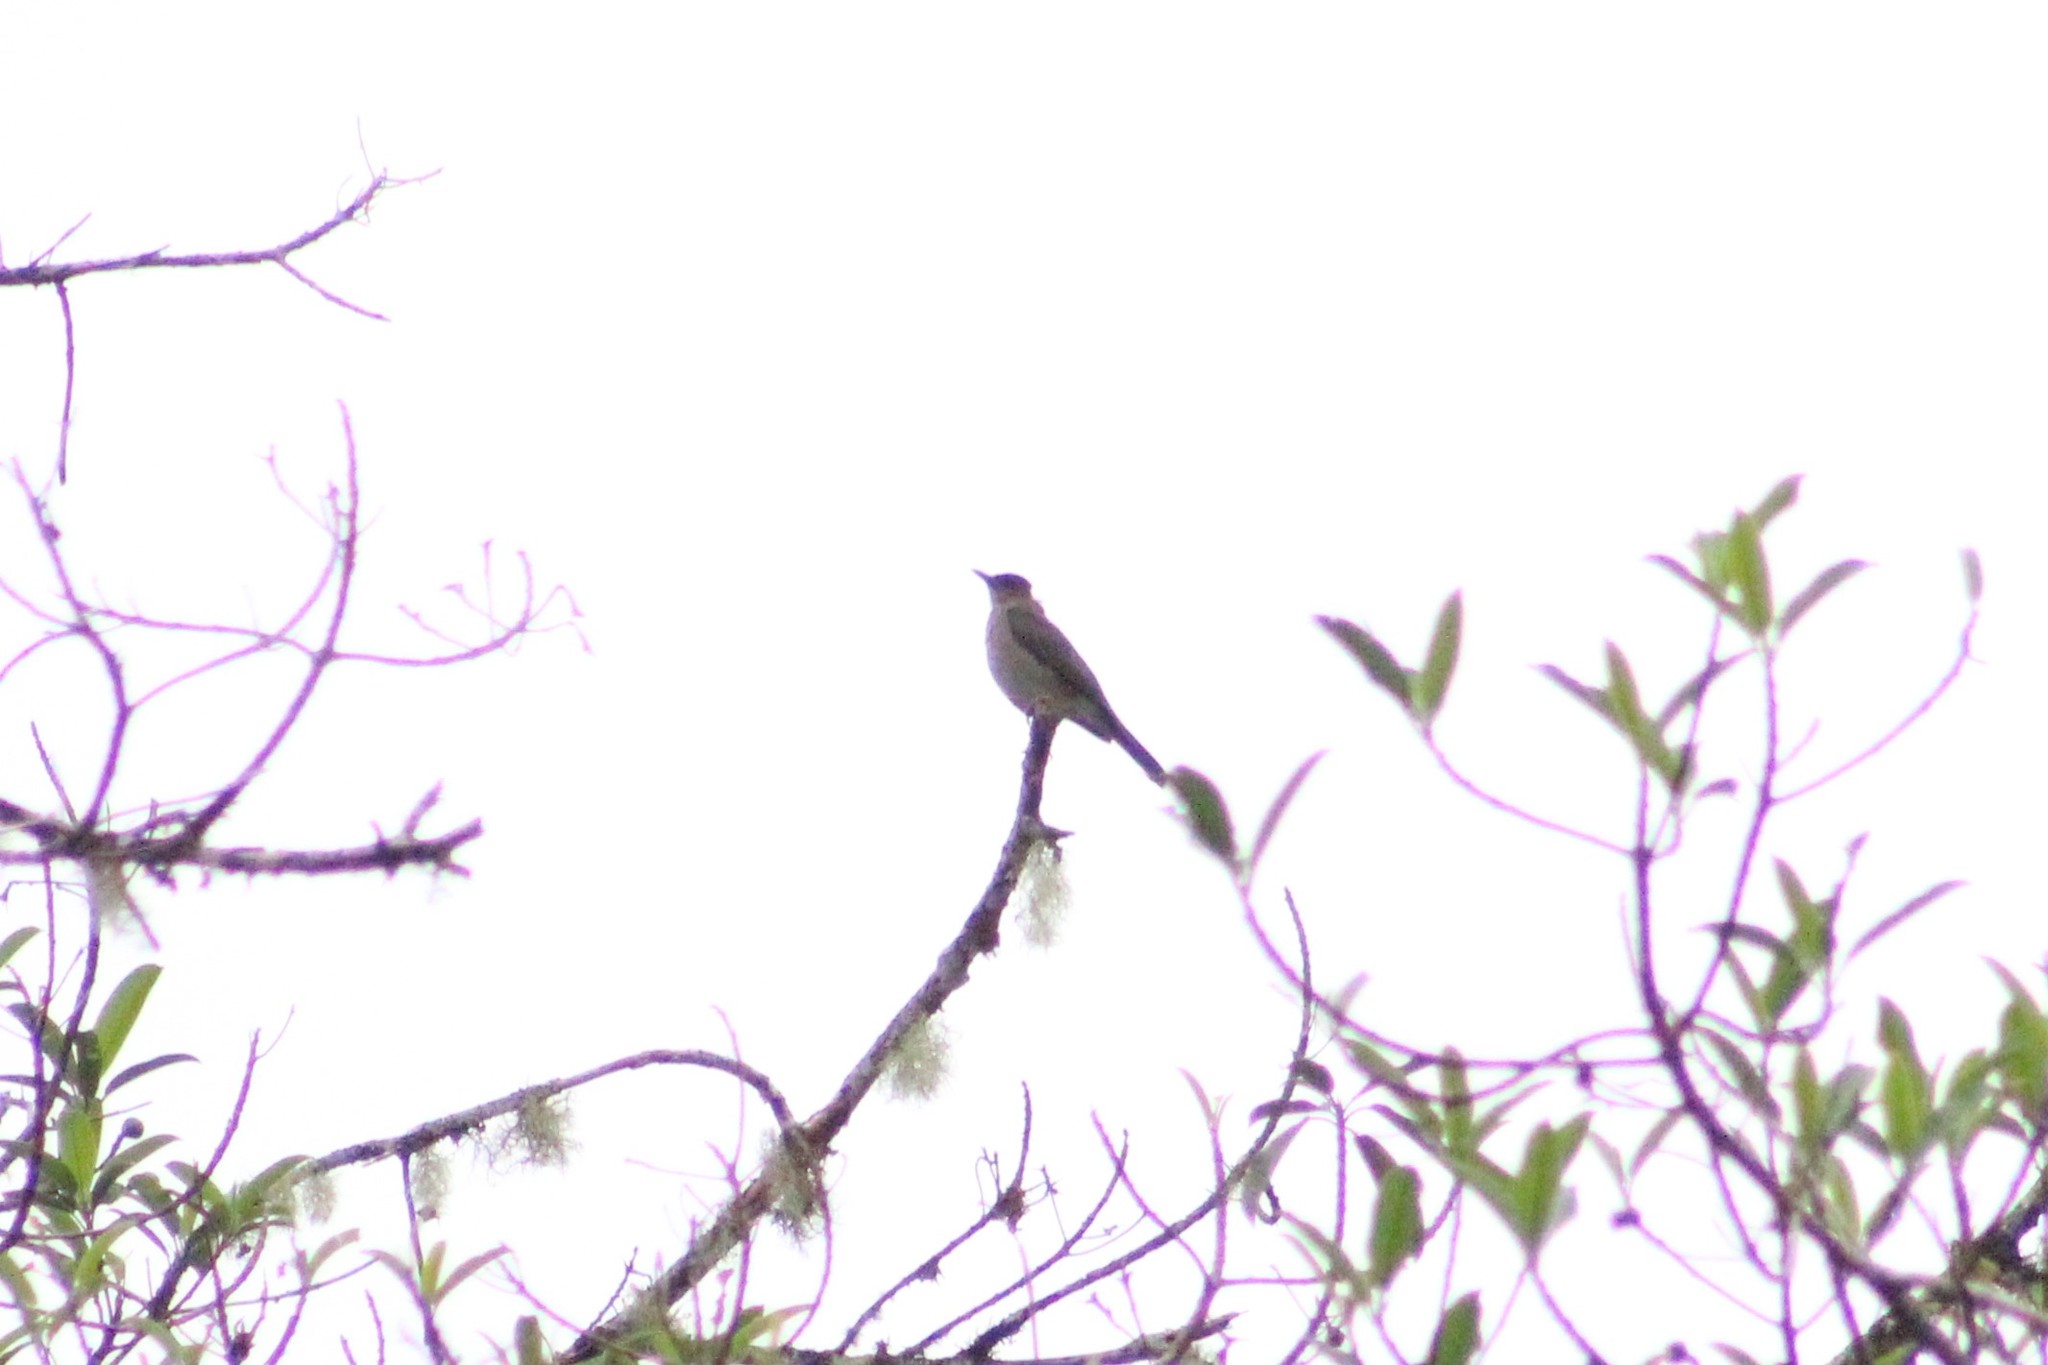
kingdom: Animalia
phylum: Chordata
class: Aves
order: Passeriformes
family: Turdidae
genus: Turdus
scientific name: Turdus ignobilis
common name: Black-billed thrush
